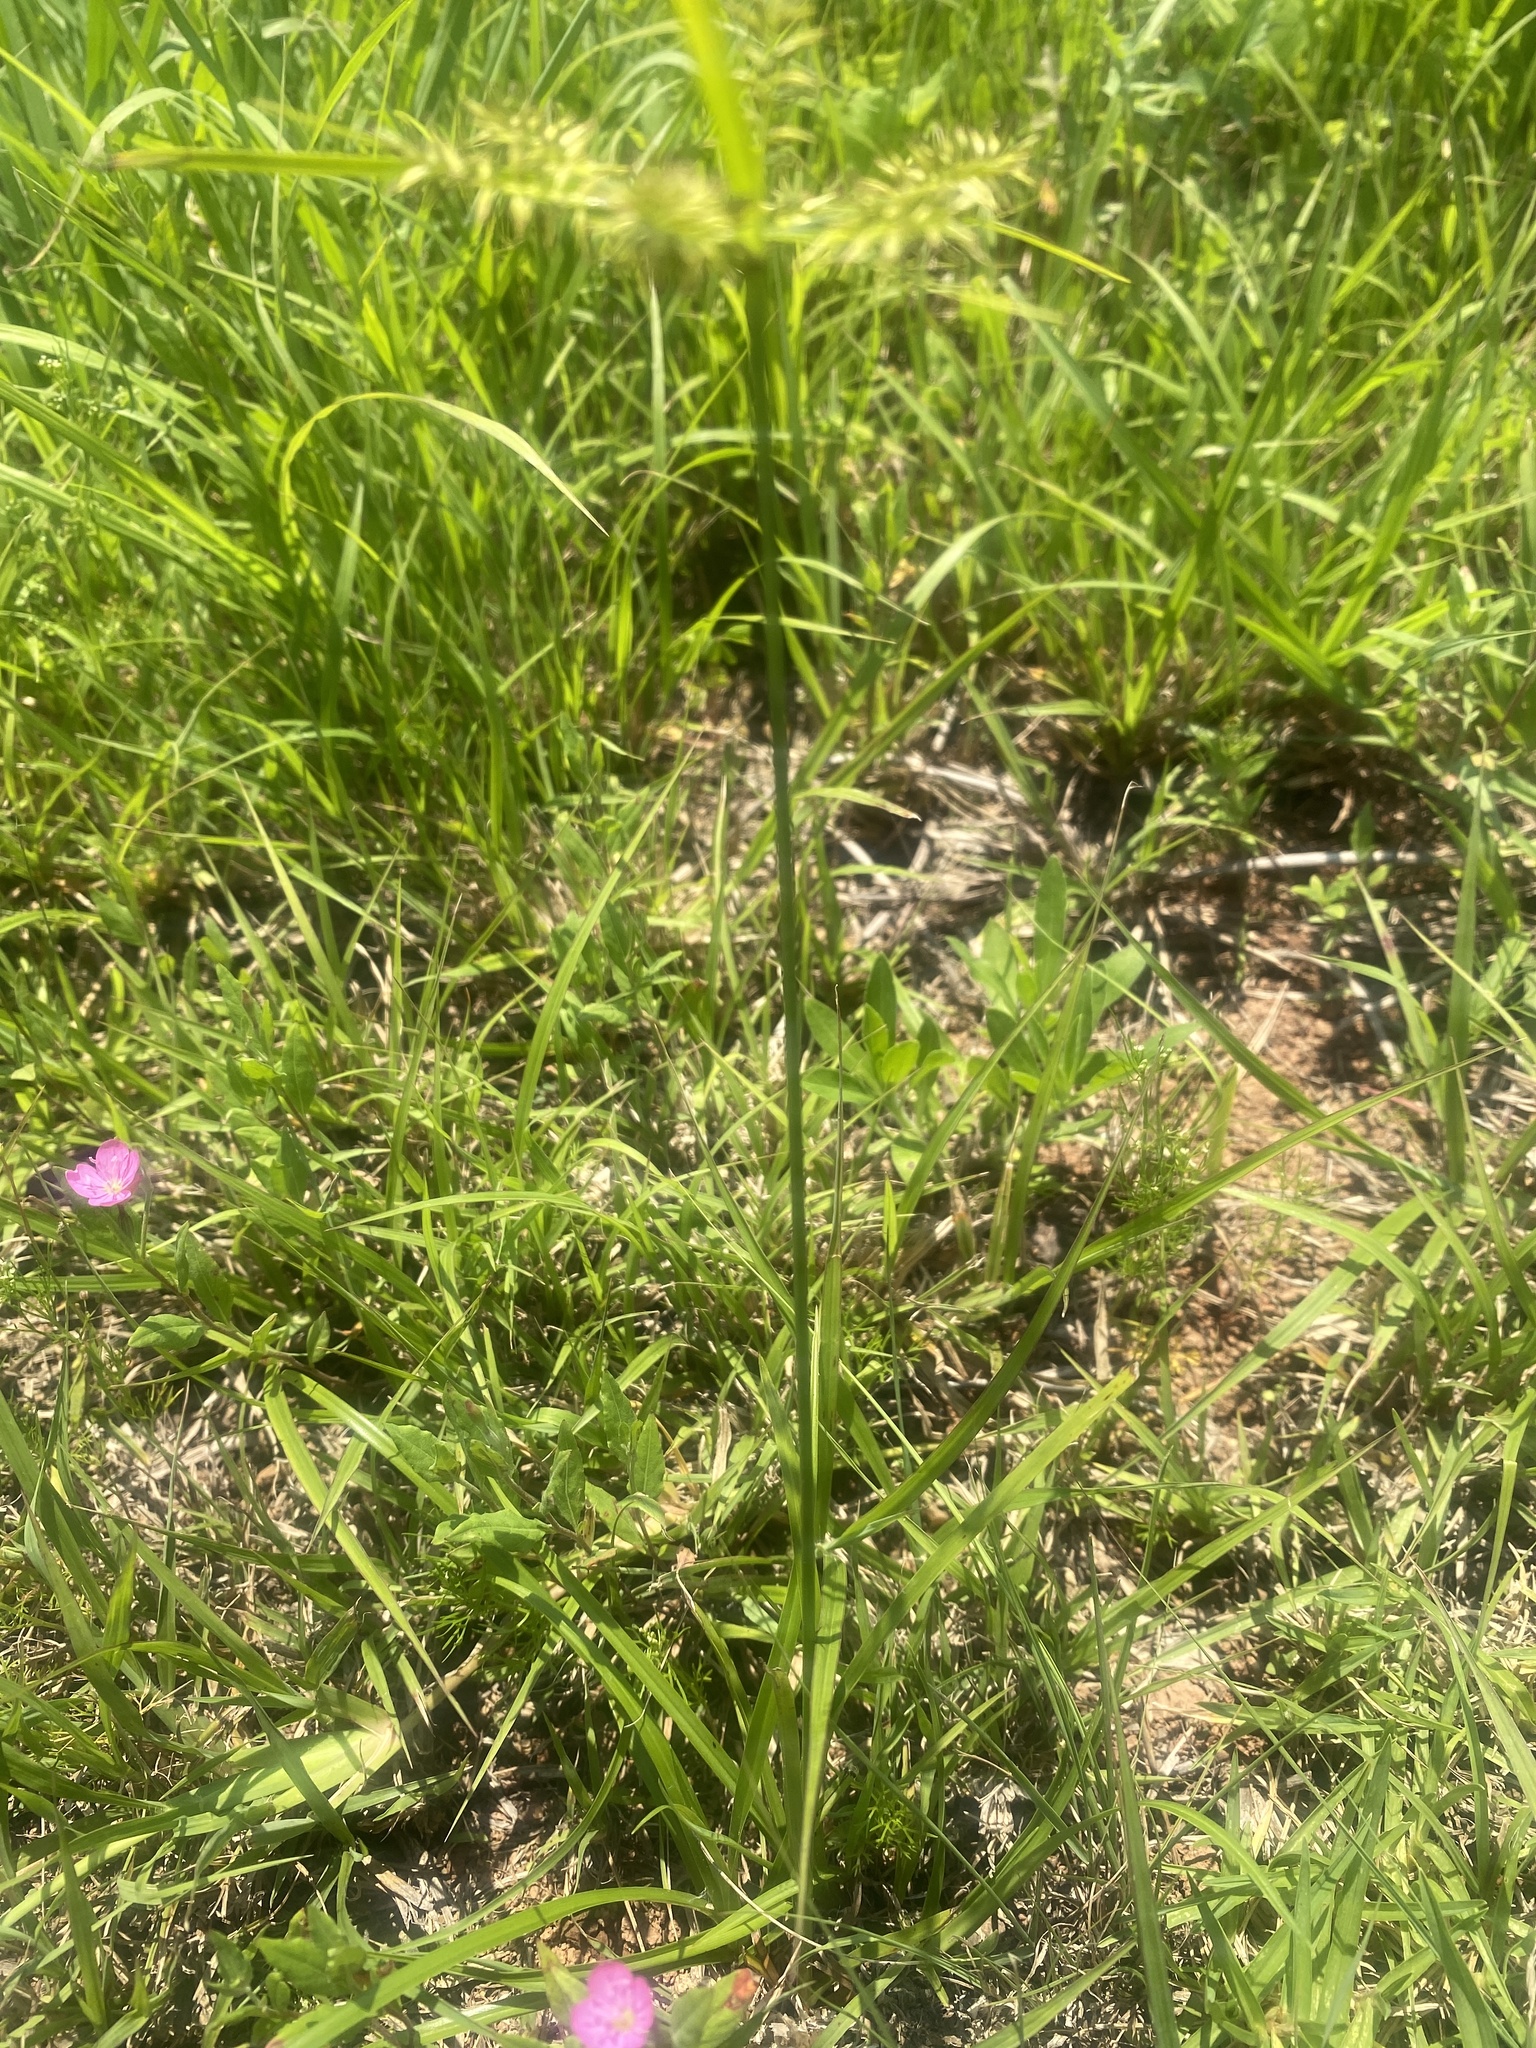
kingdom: Plantae
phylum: Tracheophyta
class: Liliopsida
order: Poales
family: Cyperaceae
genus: Cyperus
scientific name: Cyperus cyperoides
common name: Pacific island flat sedge
